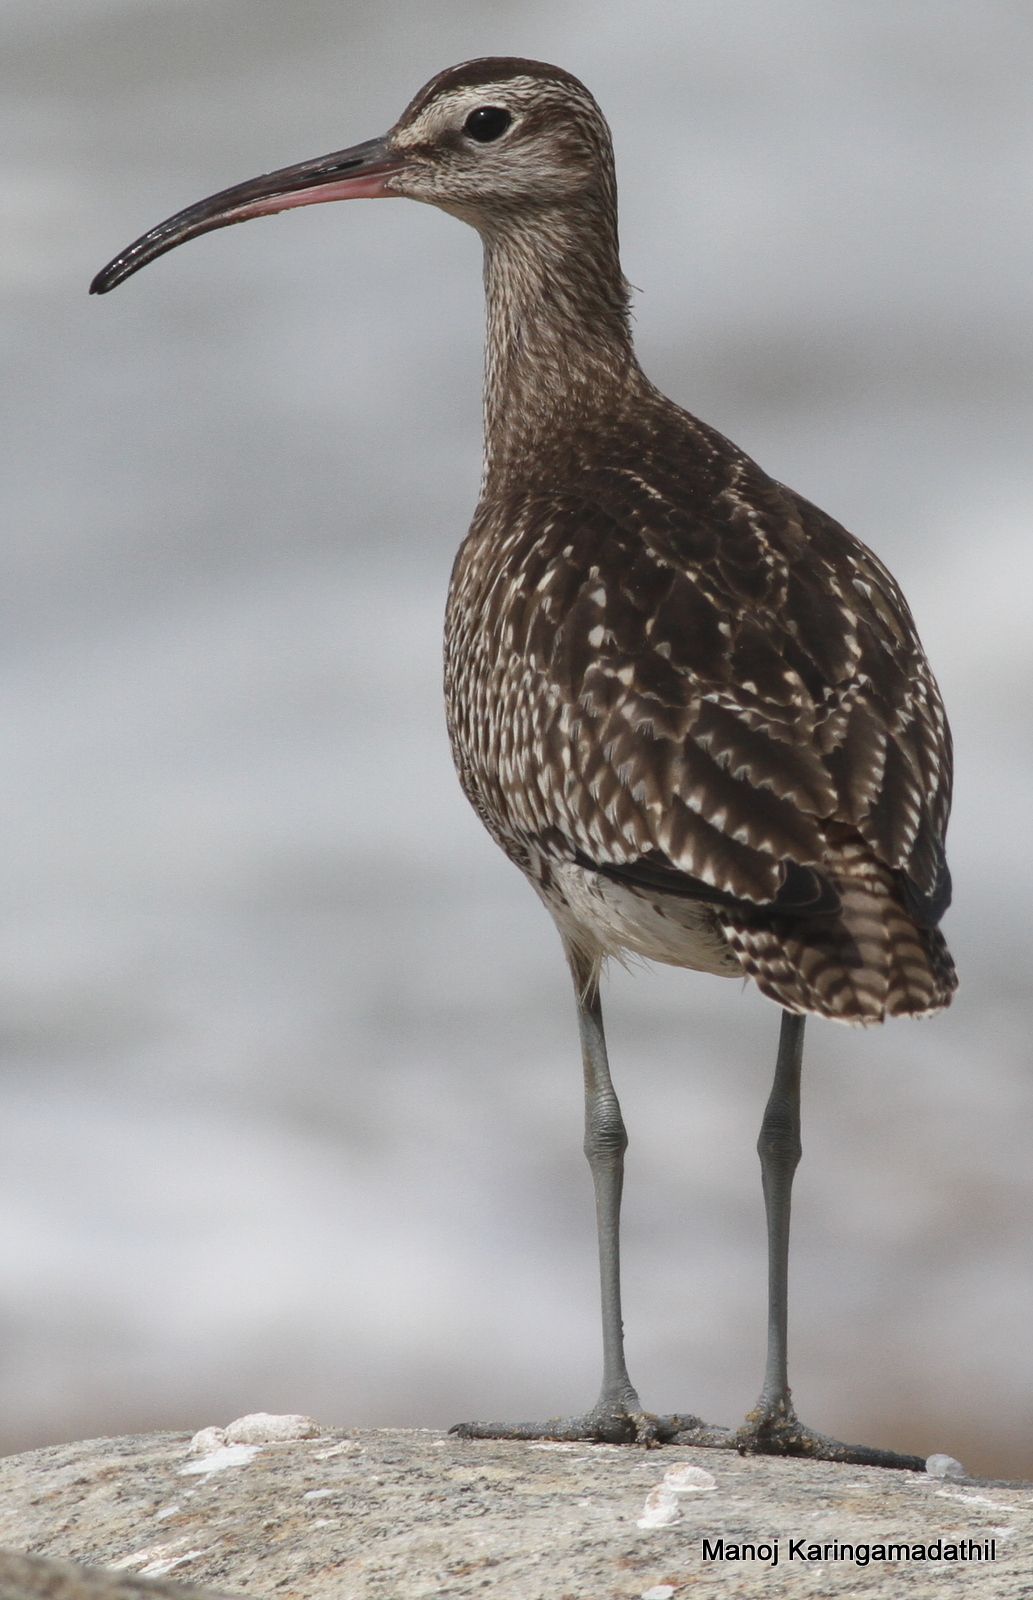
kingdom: Animalia
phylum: Chordata
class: Aves
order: Charadriiformes
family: Scolopacidae
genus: Numenius
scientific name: Numenius phaeopus
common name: Whimbrel
